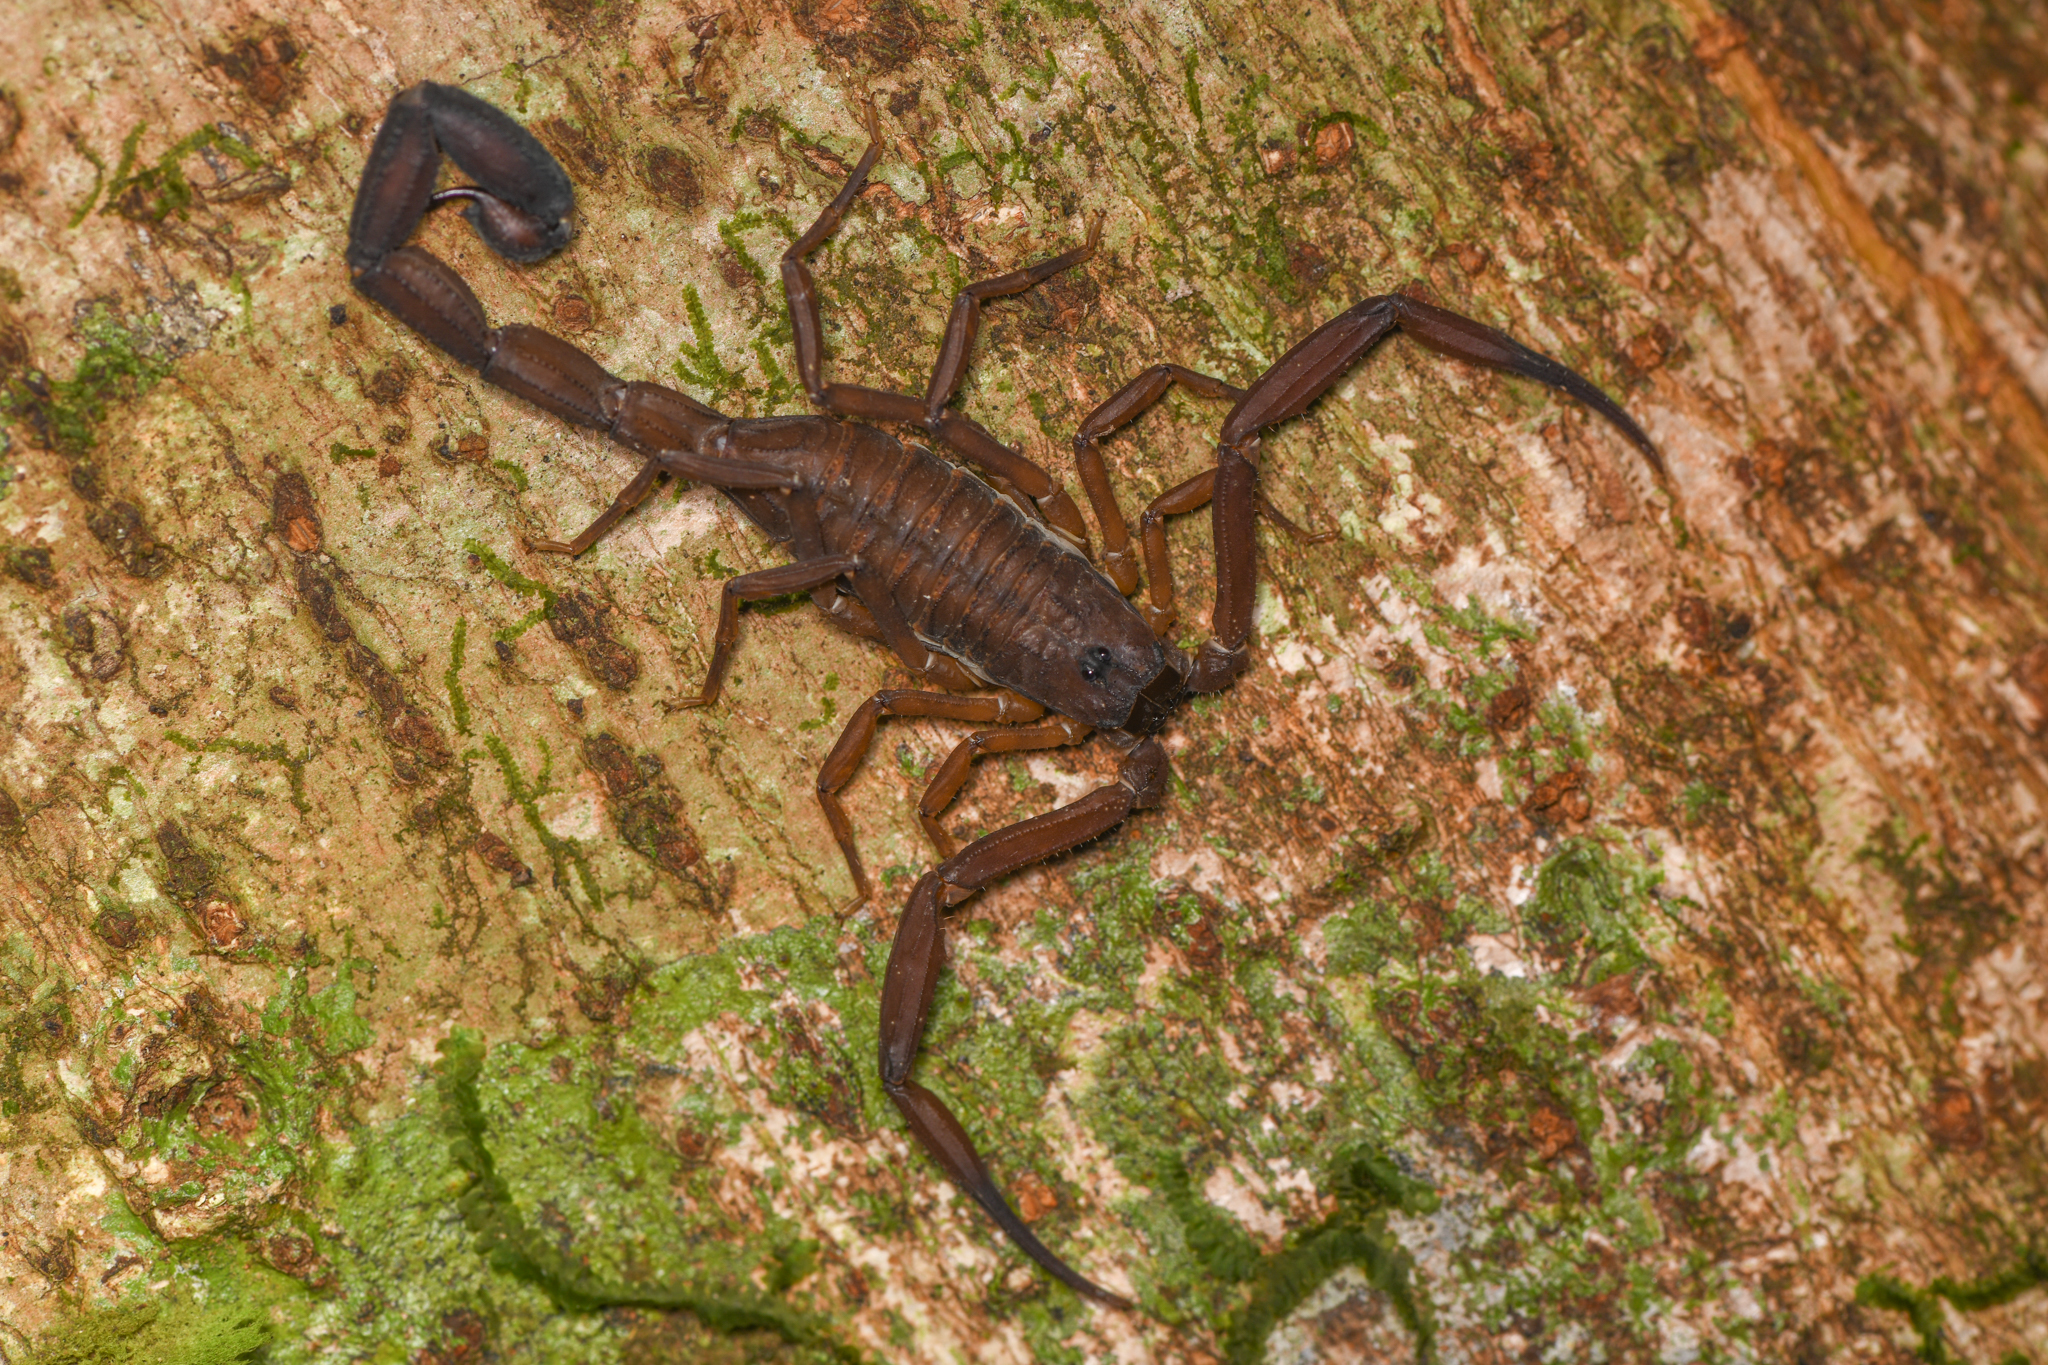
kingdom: Animalia
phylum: Arthropoda
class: Arachnida
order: Scorpiones
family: Buthidae
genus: Tityus
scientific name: Tityus dedoslargos
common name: Scorpions
